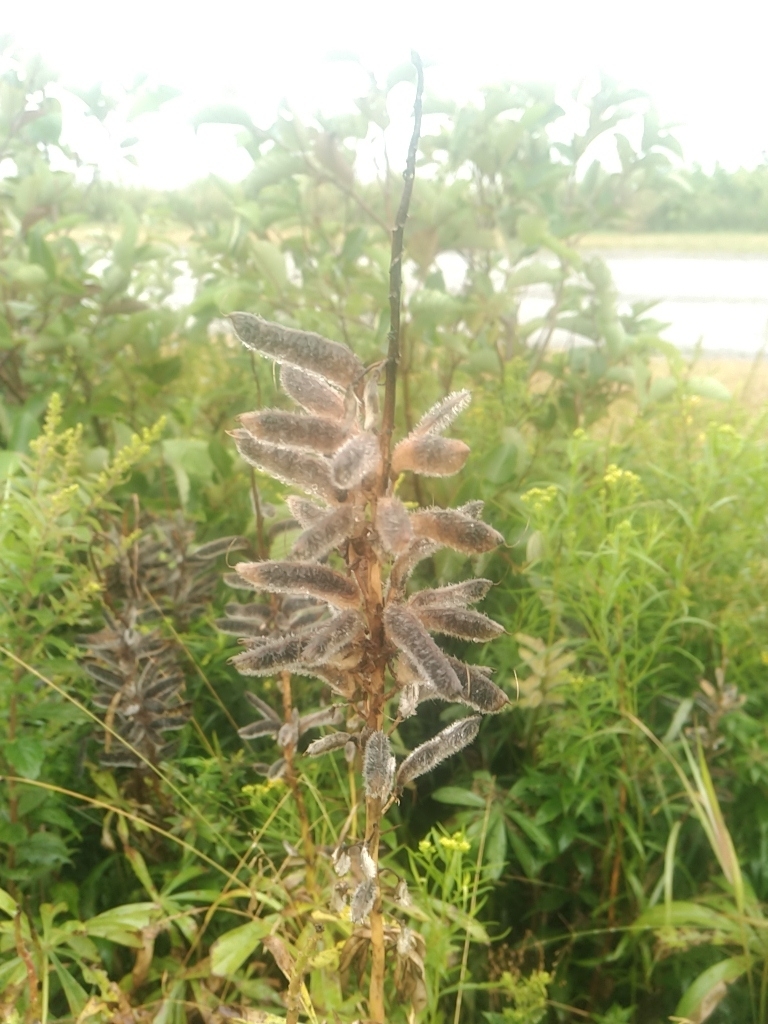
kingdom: Plantae
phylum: Tracheophyta
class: Magnoliopsida
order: Fabales
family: Fabaceae
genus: Lupinus
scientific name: Lupinus polyphyllus
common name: Garden lupin
